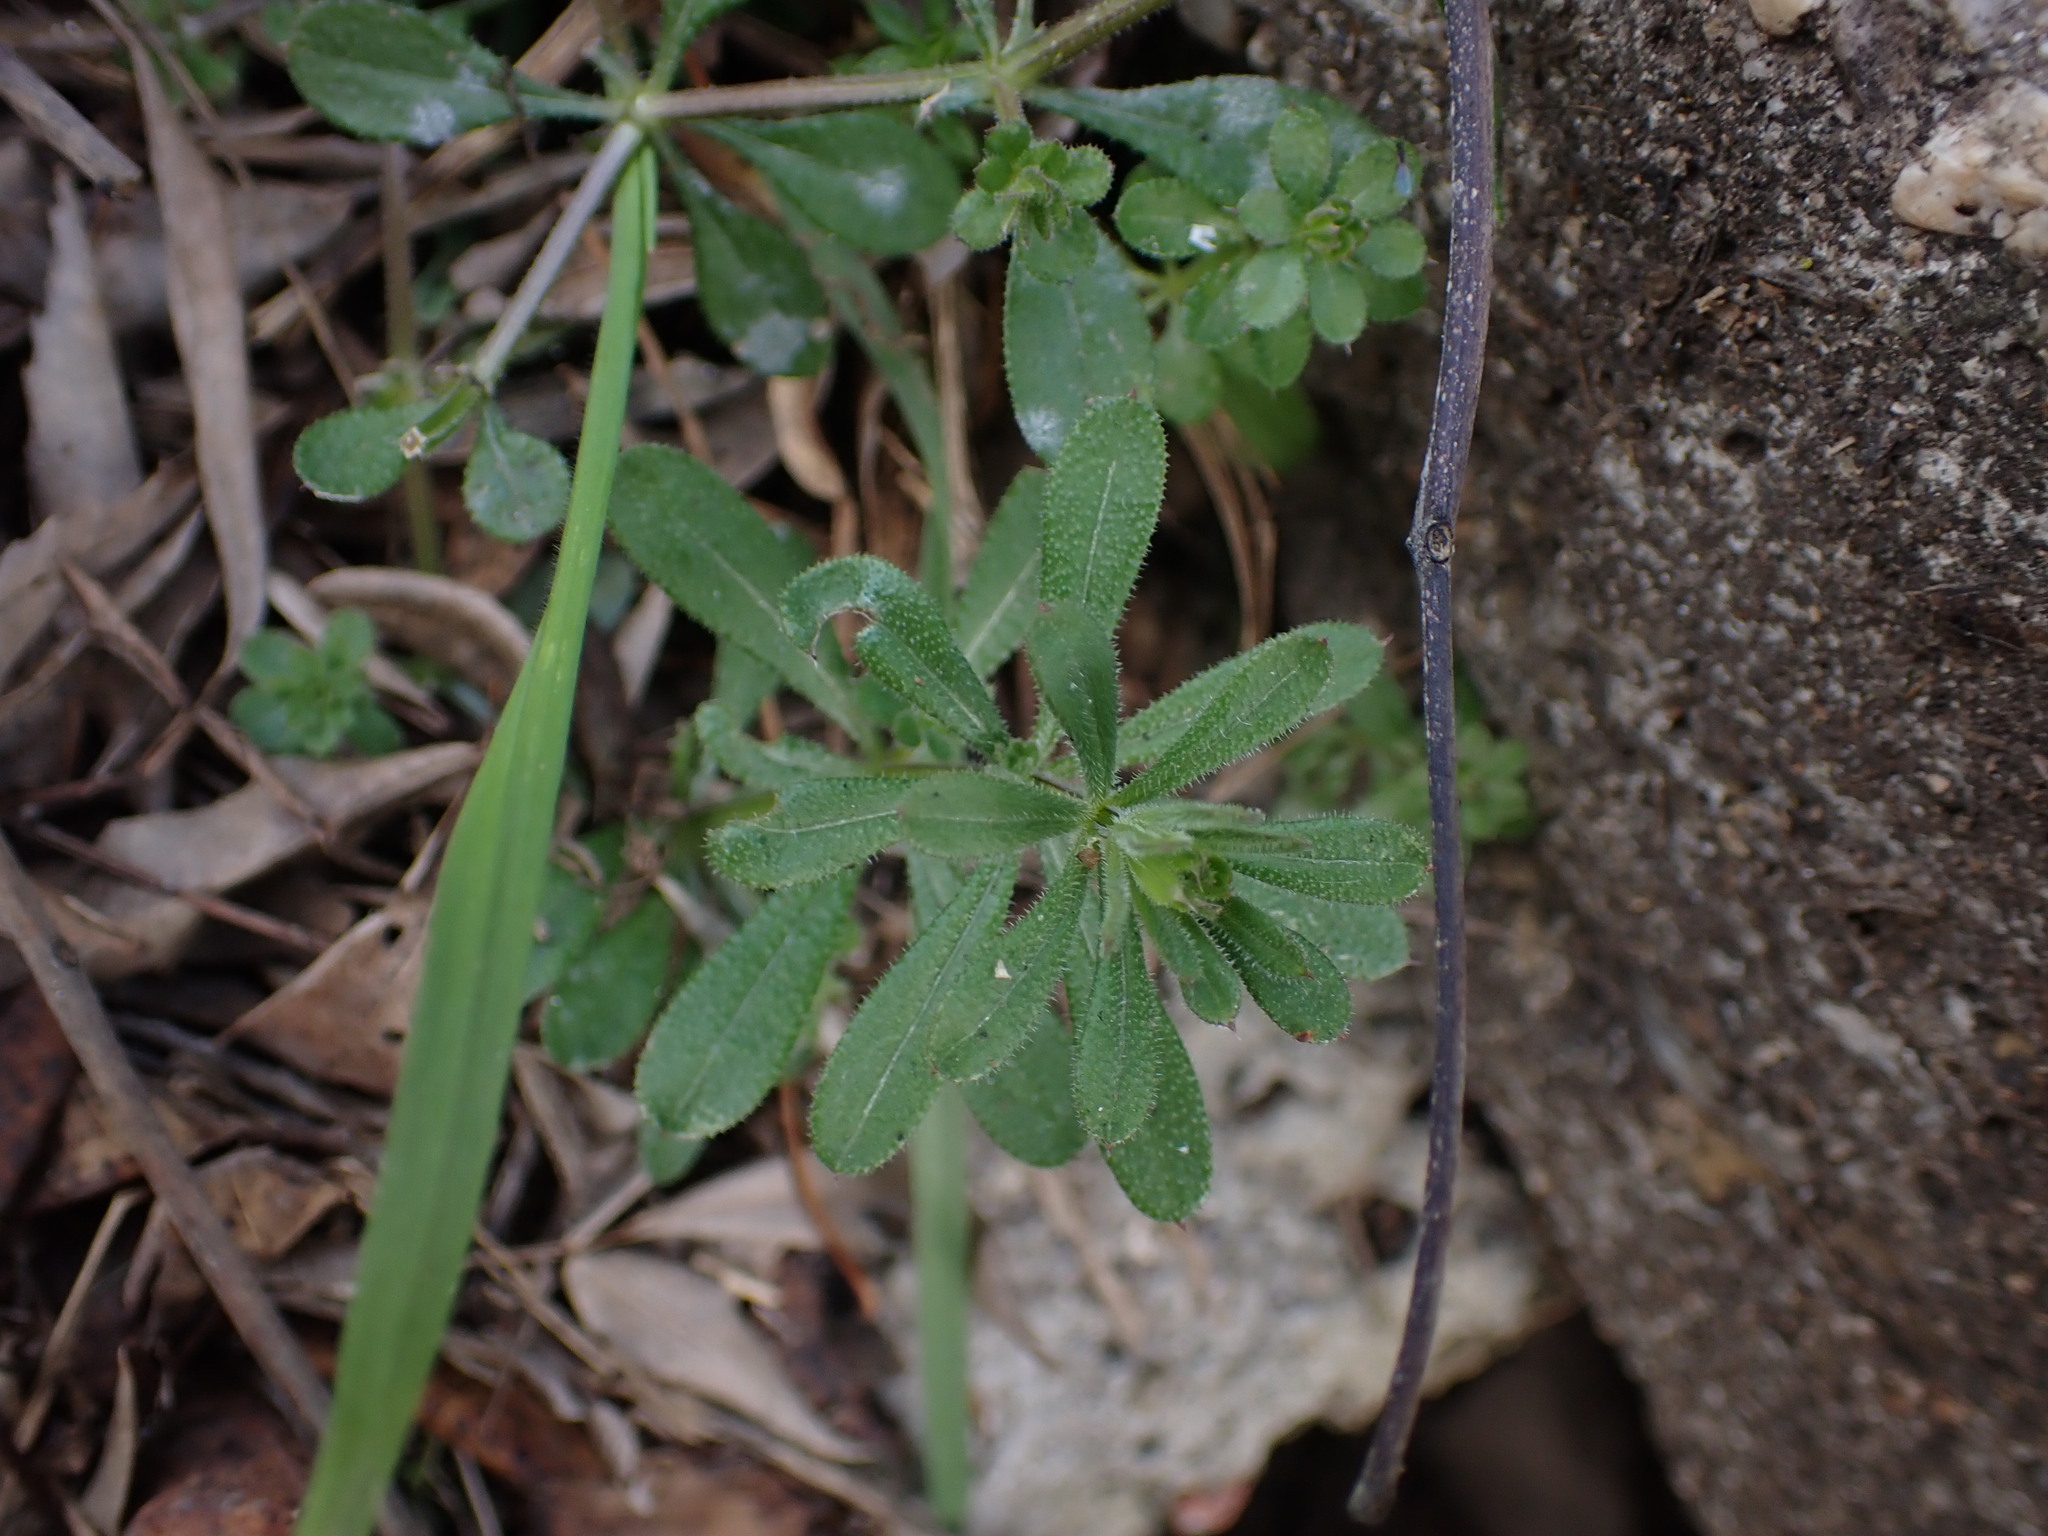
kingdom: Plantae
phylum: Tracheophyta
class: Magnoliopsida
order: Gentianales
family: Rubiaceae
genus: Galium
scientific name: Galium aparine
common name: Cleavers
